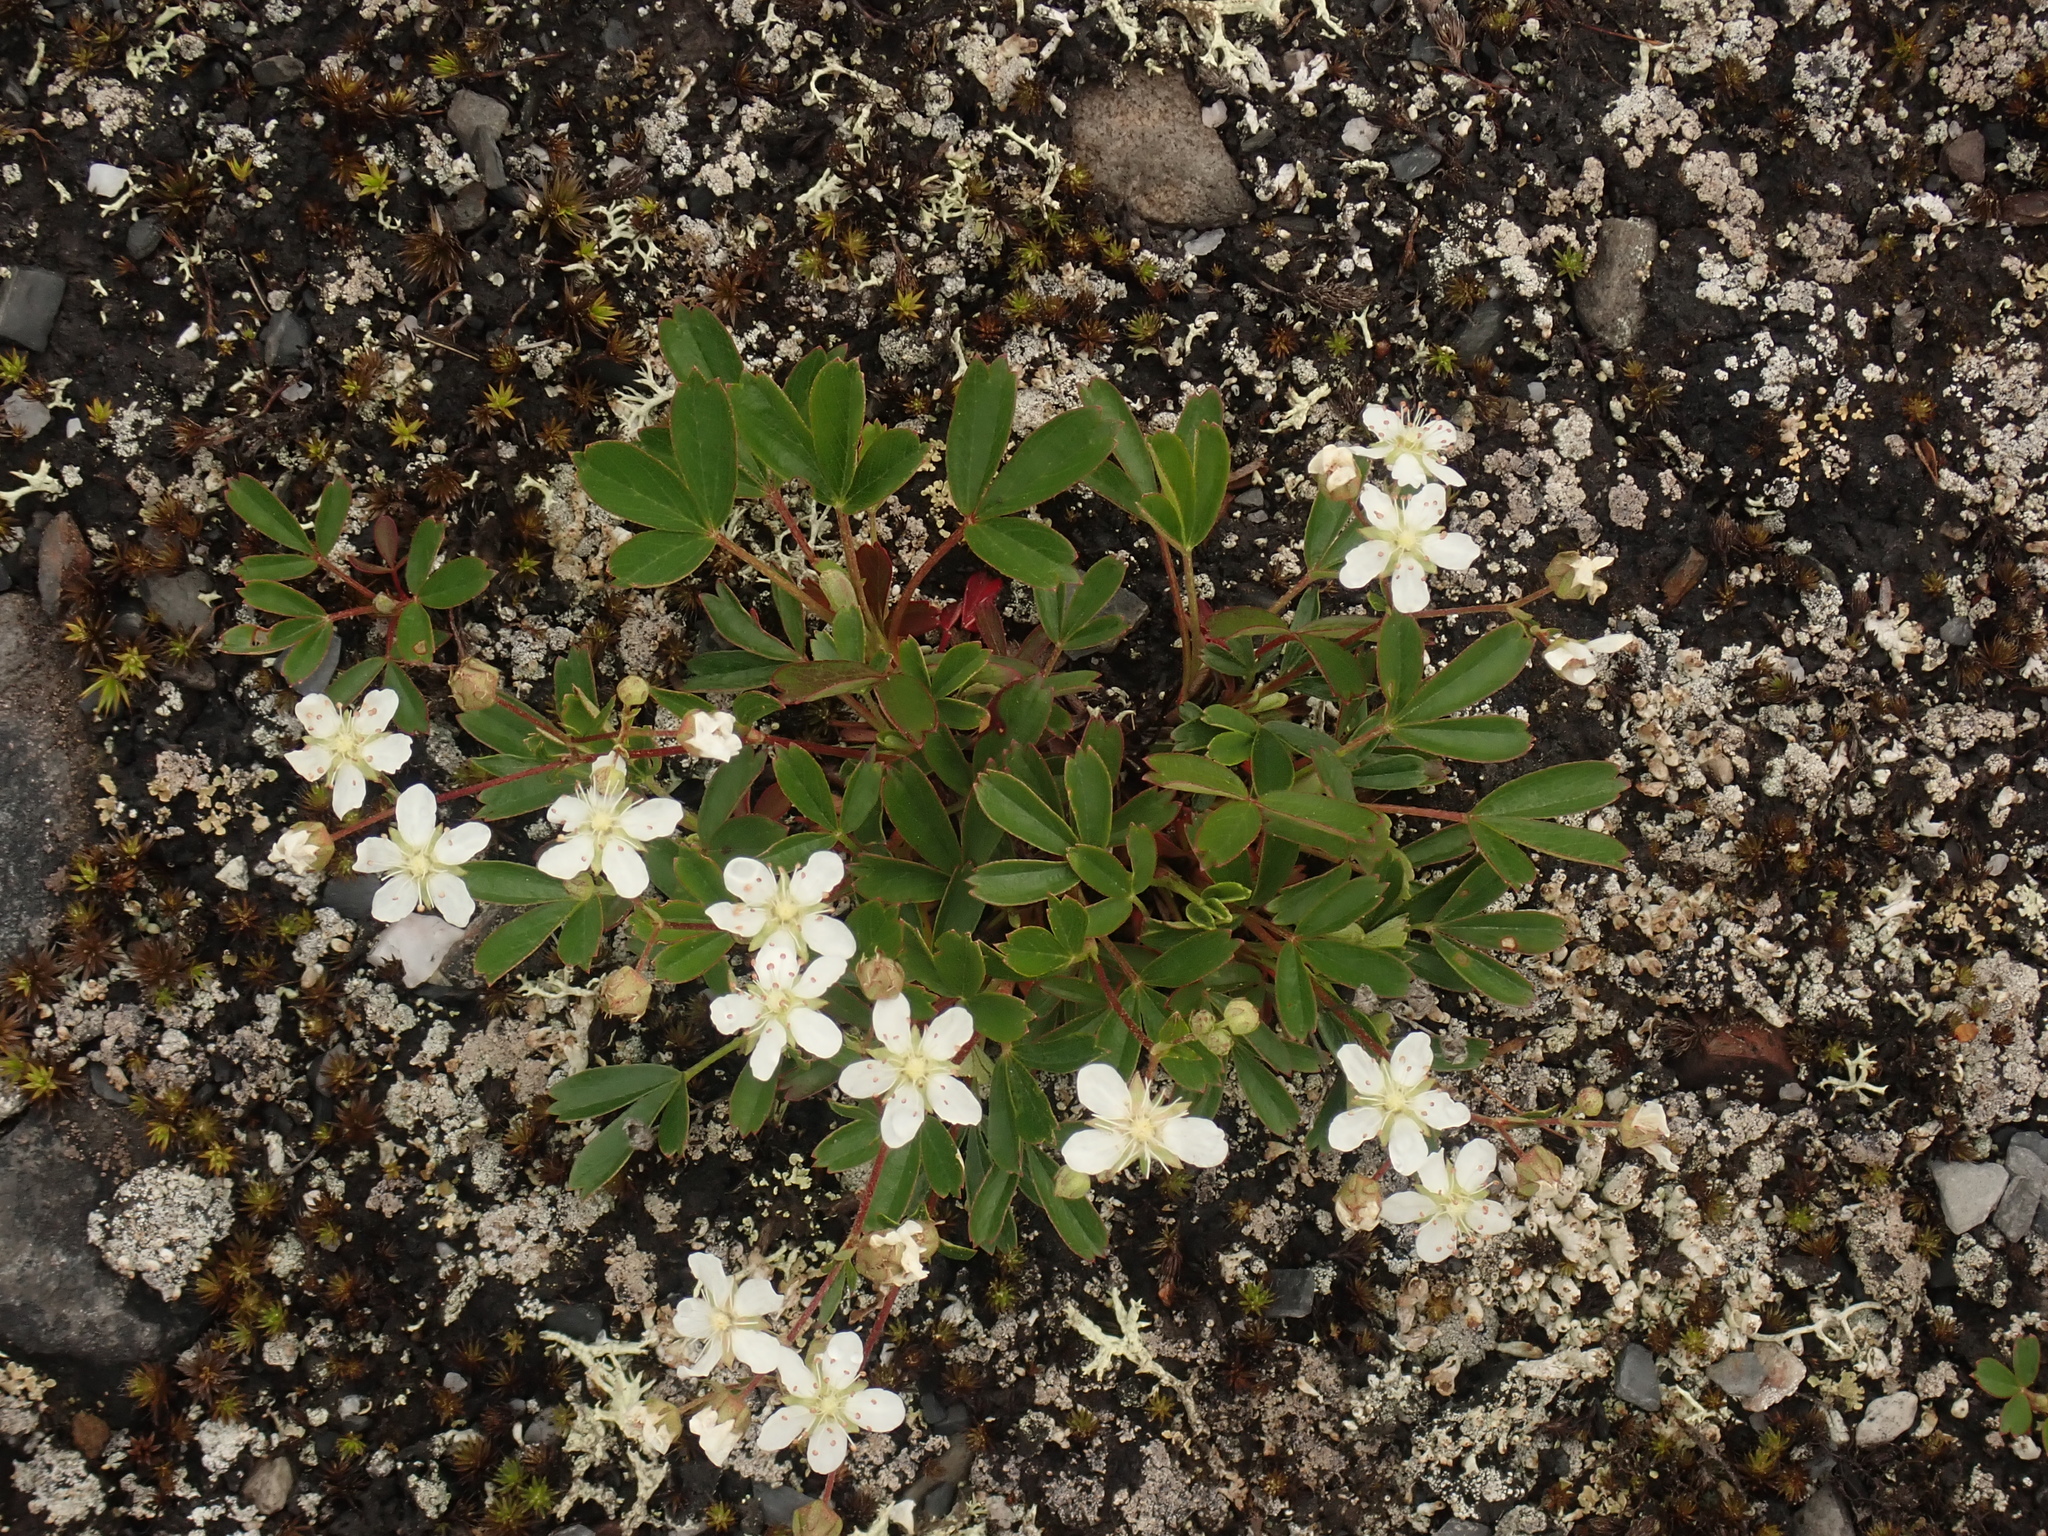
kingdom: Plantae
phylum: Tracheophyta
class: Magnoliopsida
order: Rosales
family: Rosaceae
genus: Sibbaldia
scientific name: Sibbaldia tridentata
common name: Three-toothed cinquefoil
